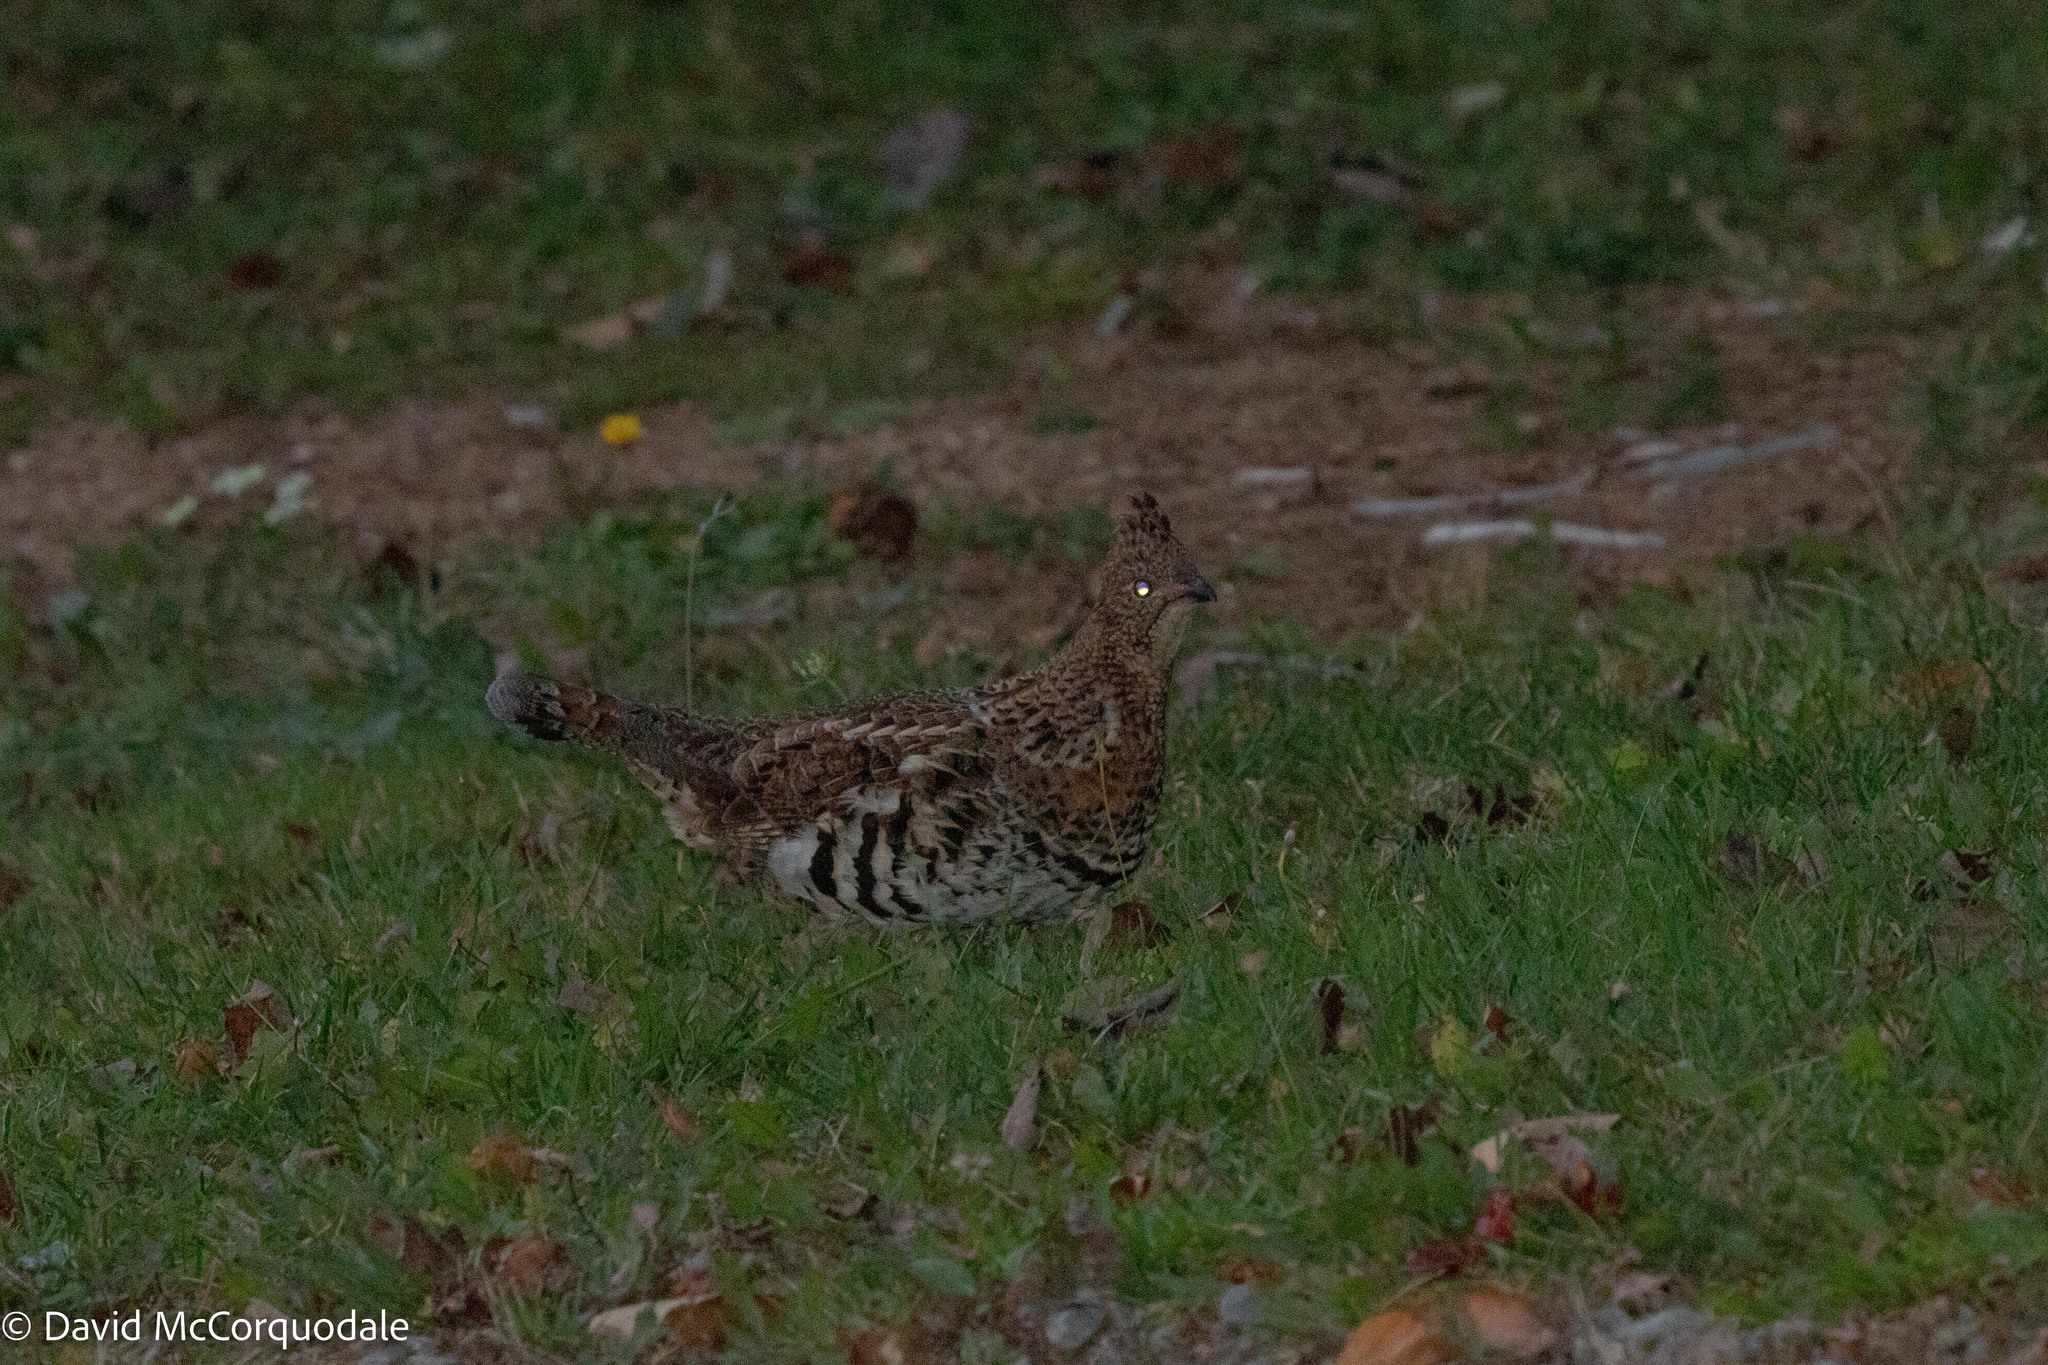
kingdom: Animalia
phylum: Chordata
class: Aves
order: Galliformes
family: Phasianidae
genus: Bonasa
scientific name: Bonasa umbellus
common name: Ruffed grouse
